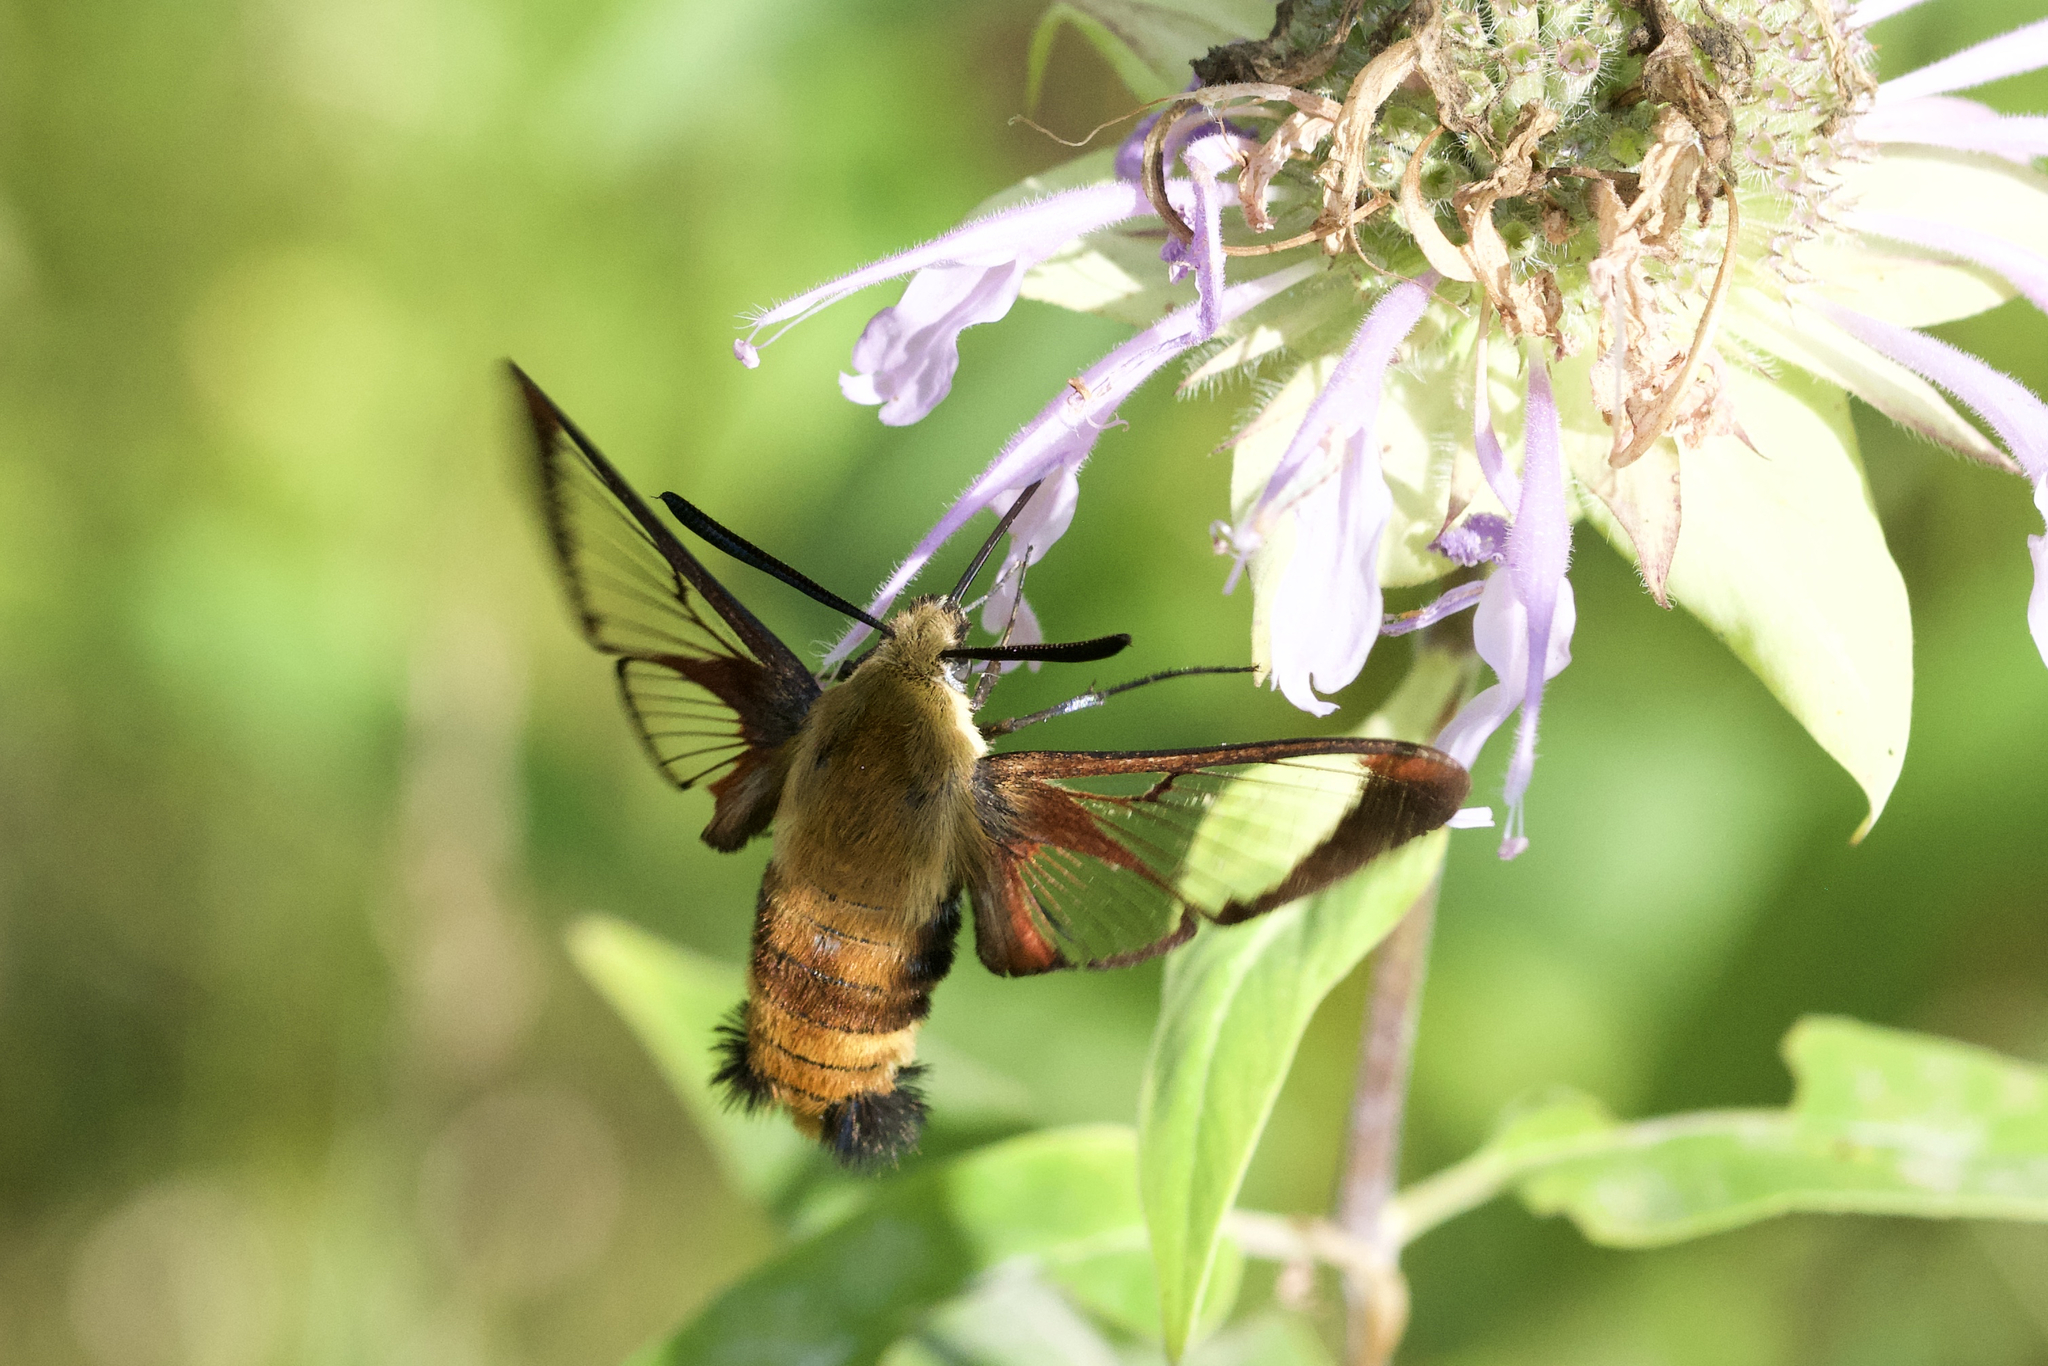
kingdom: Animalia
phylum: Arthropoda
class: Insecta
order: Lepidoptera
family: Sphingidae
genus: Hemaris
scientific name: Hemaris diffinis
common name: Bumblebee moth
